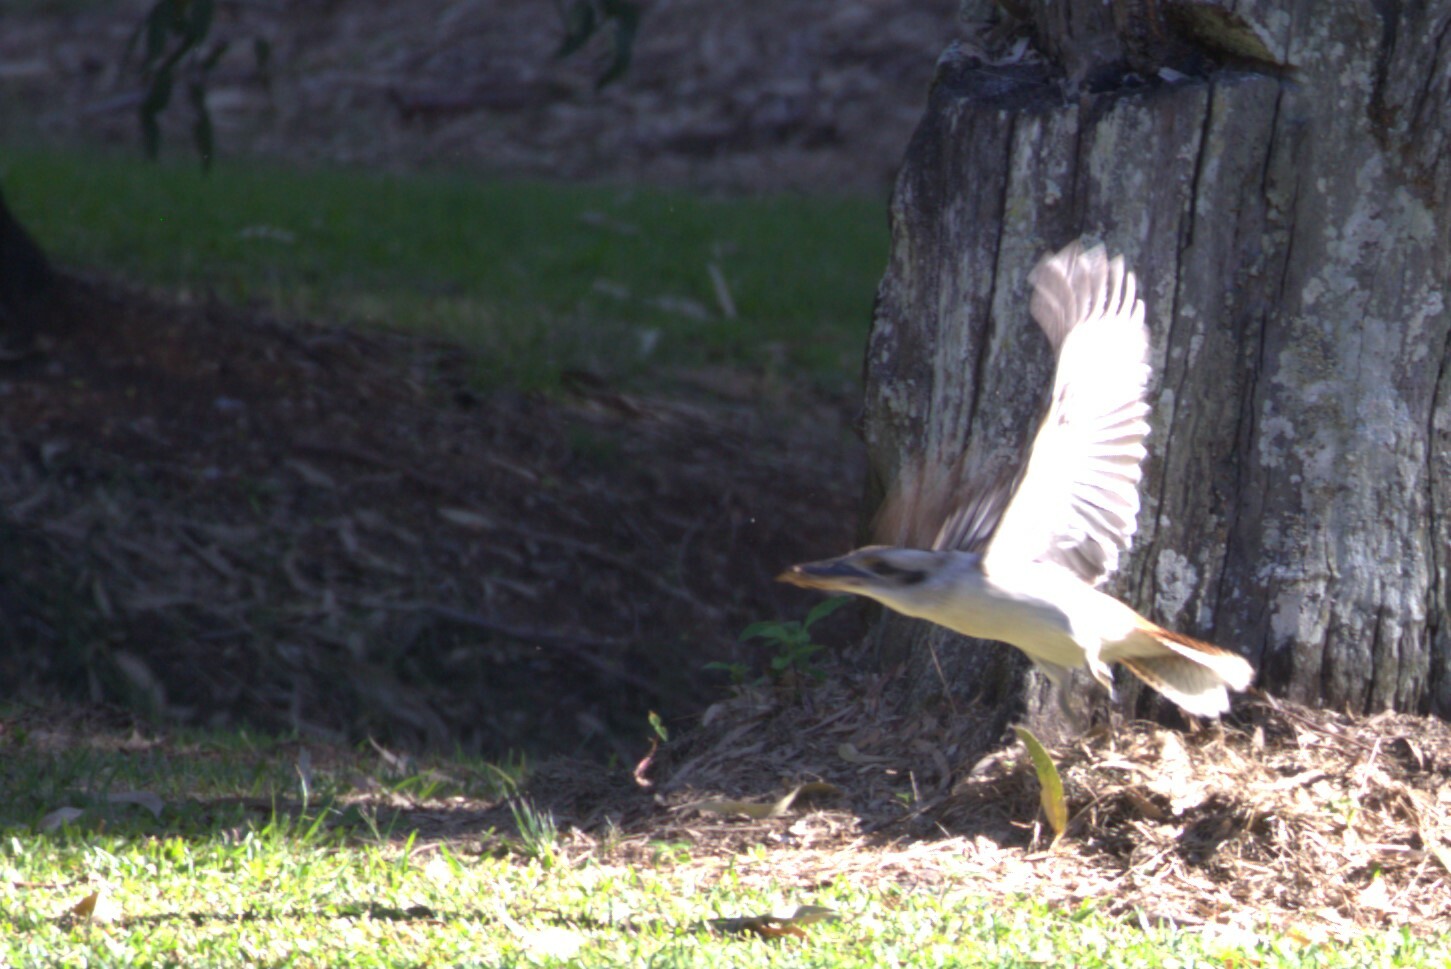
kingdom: Animalia
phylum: Chordata
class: Aves
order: Coraciiformes
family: Alcedinidae
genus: Dacelo
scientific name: Dacelo novaeguineae
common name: Laughing kookaburra
